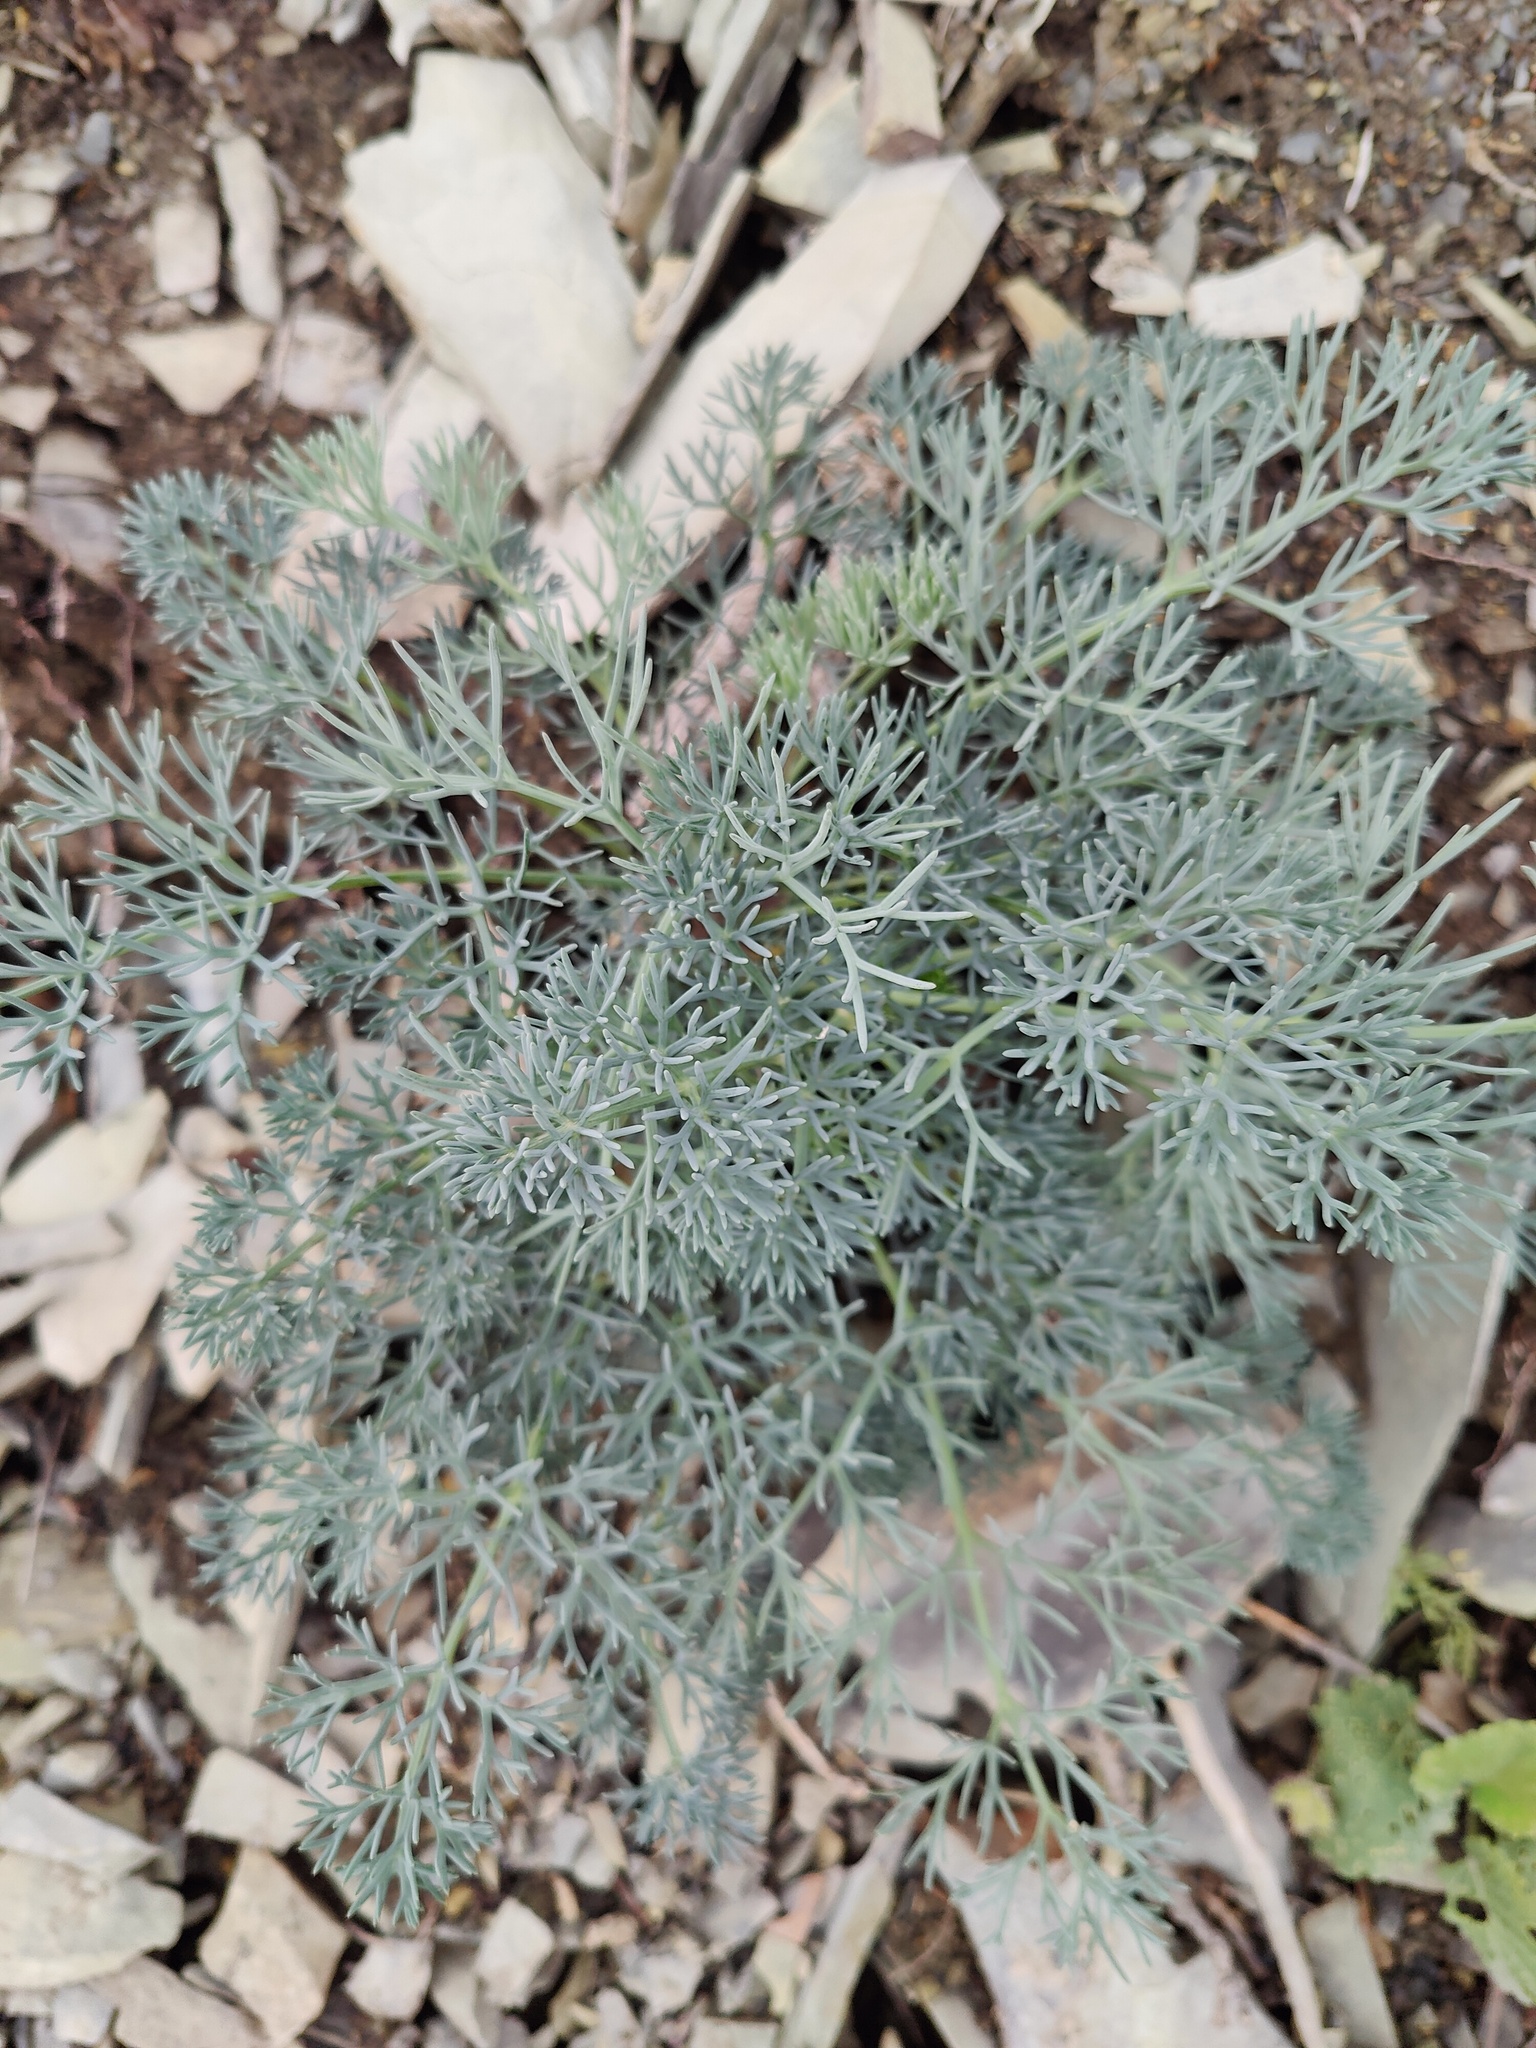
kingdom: Plantae
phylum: Tracheophyta
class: Magnoliopsida
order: Apiales
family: Apiaceae
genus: Seseli
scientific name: Seseli ponticum
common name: Pontic seseli
